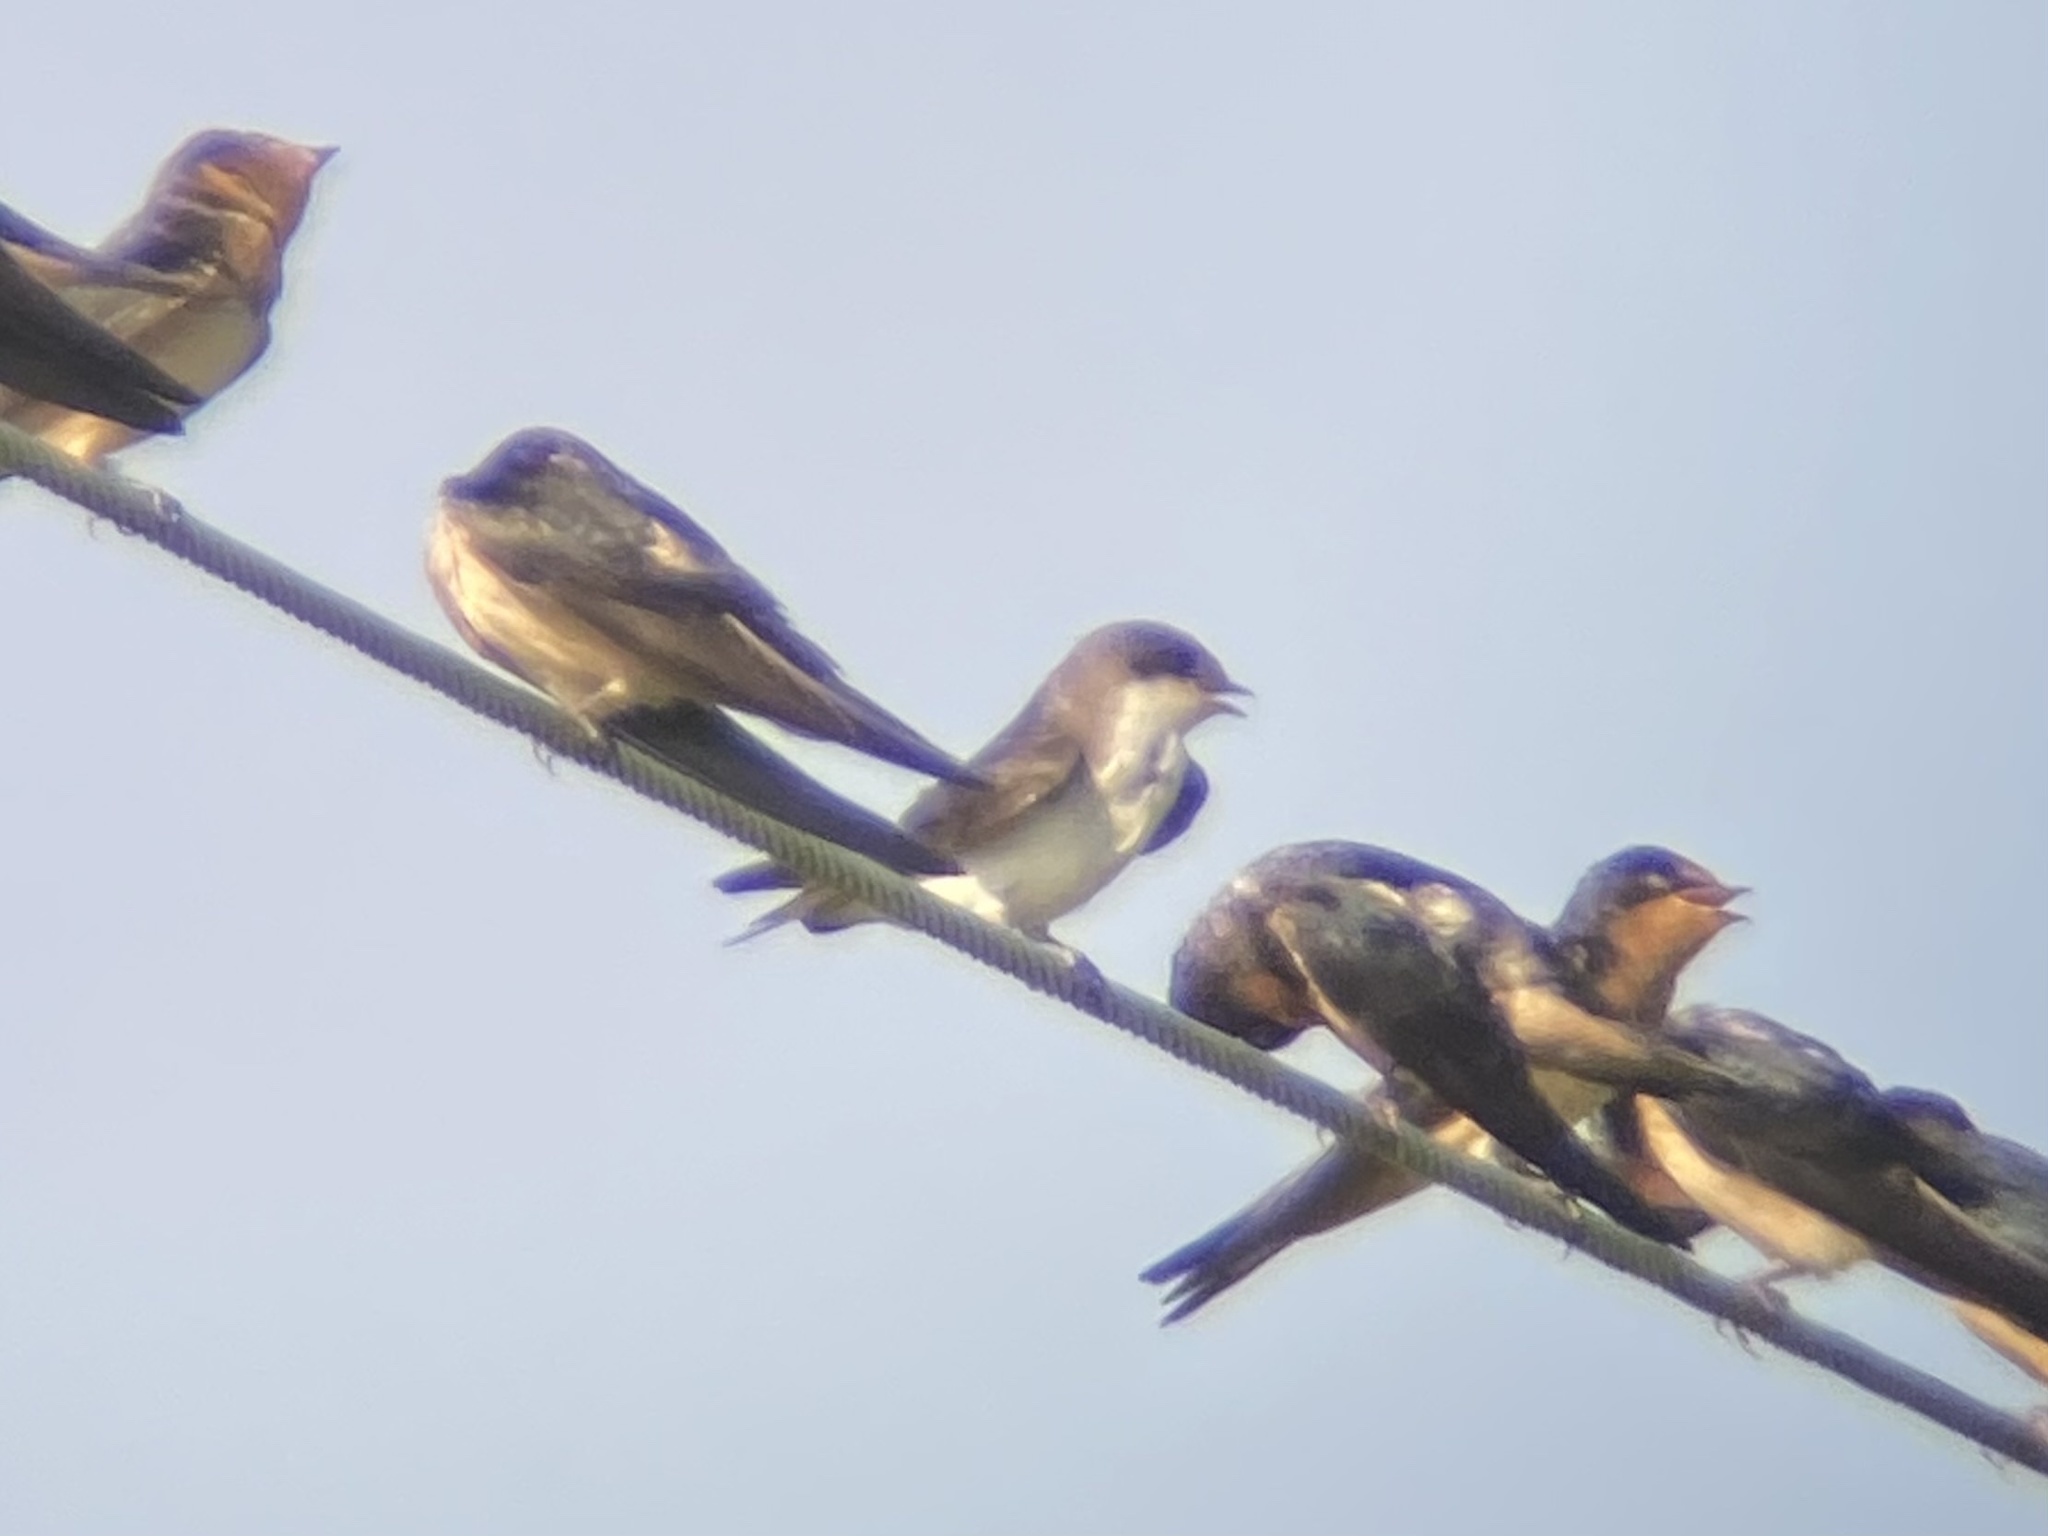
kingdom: Animalia
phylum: Chordata
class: Aves
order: Passeriformes
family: Hirundinidae
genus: Tachycineta
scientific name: Tachycineta bicolor
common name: Tree swallow
